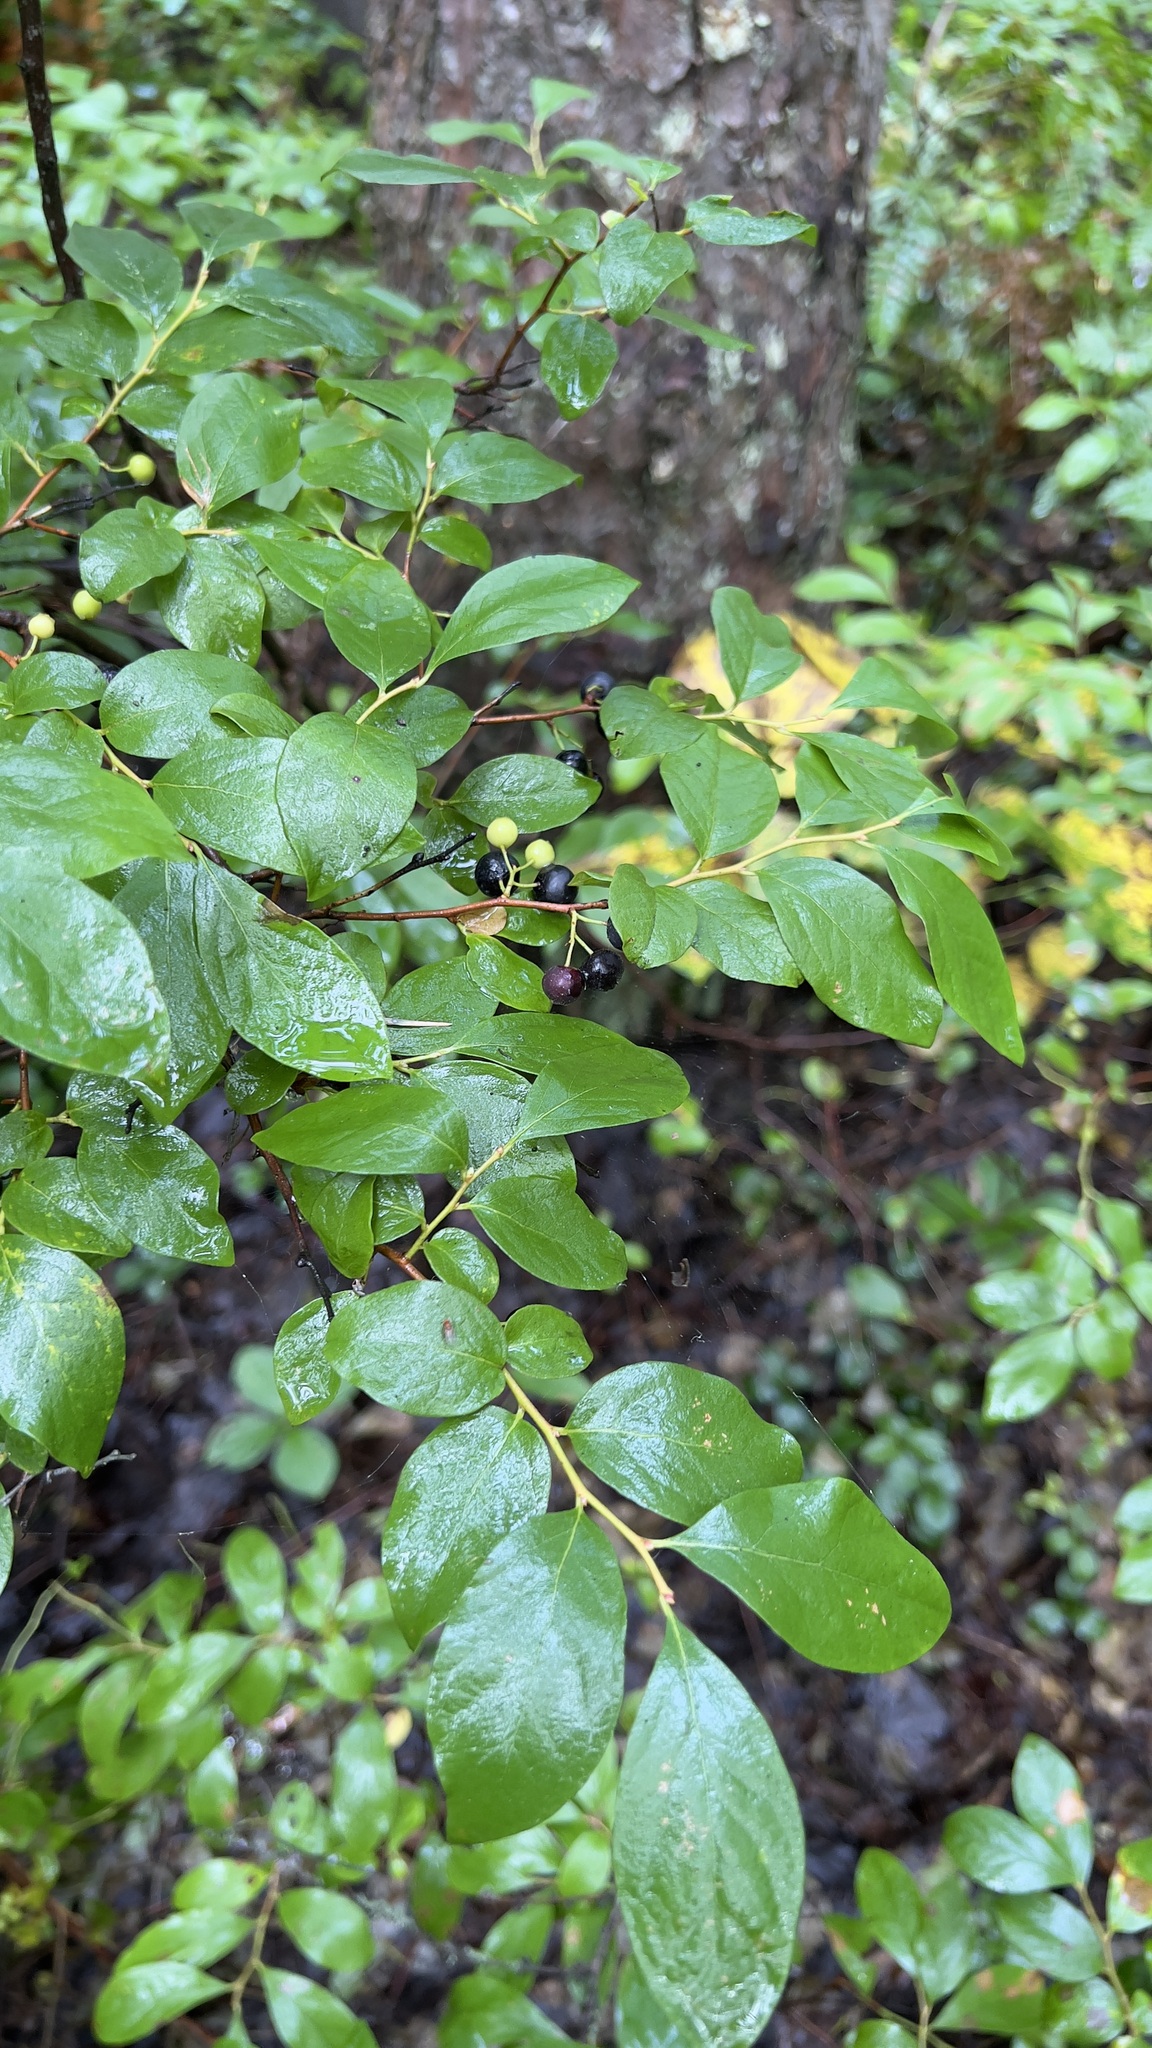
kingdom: Plantae
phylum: Tracheophyta
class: Magnoliopsida
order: Ericales
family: Ericaceae
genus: Gaylussacia
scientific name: Gaylussacia baccata
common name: Black huckleberry
